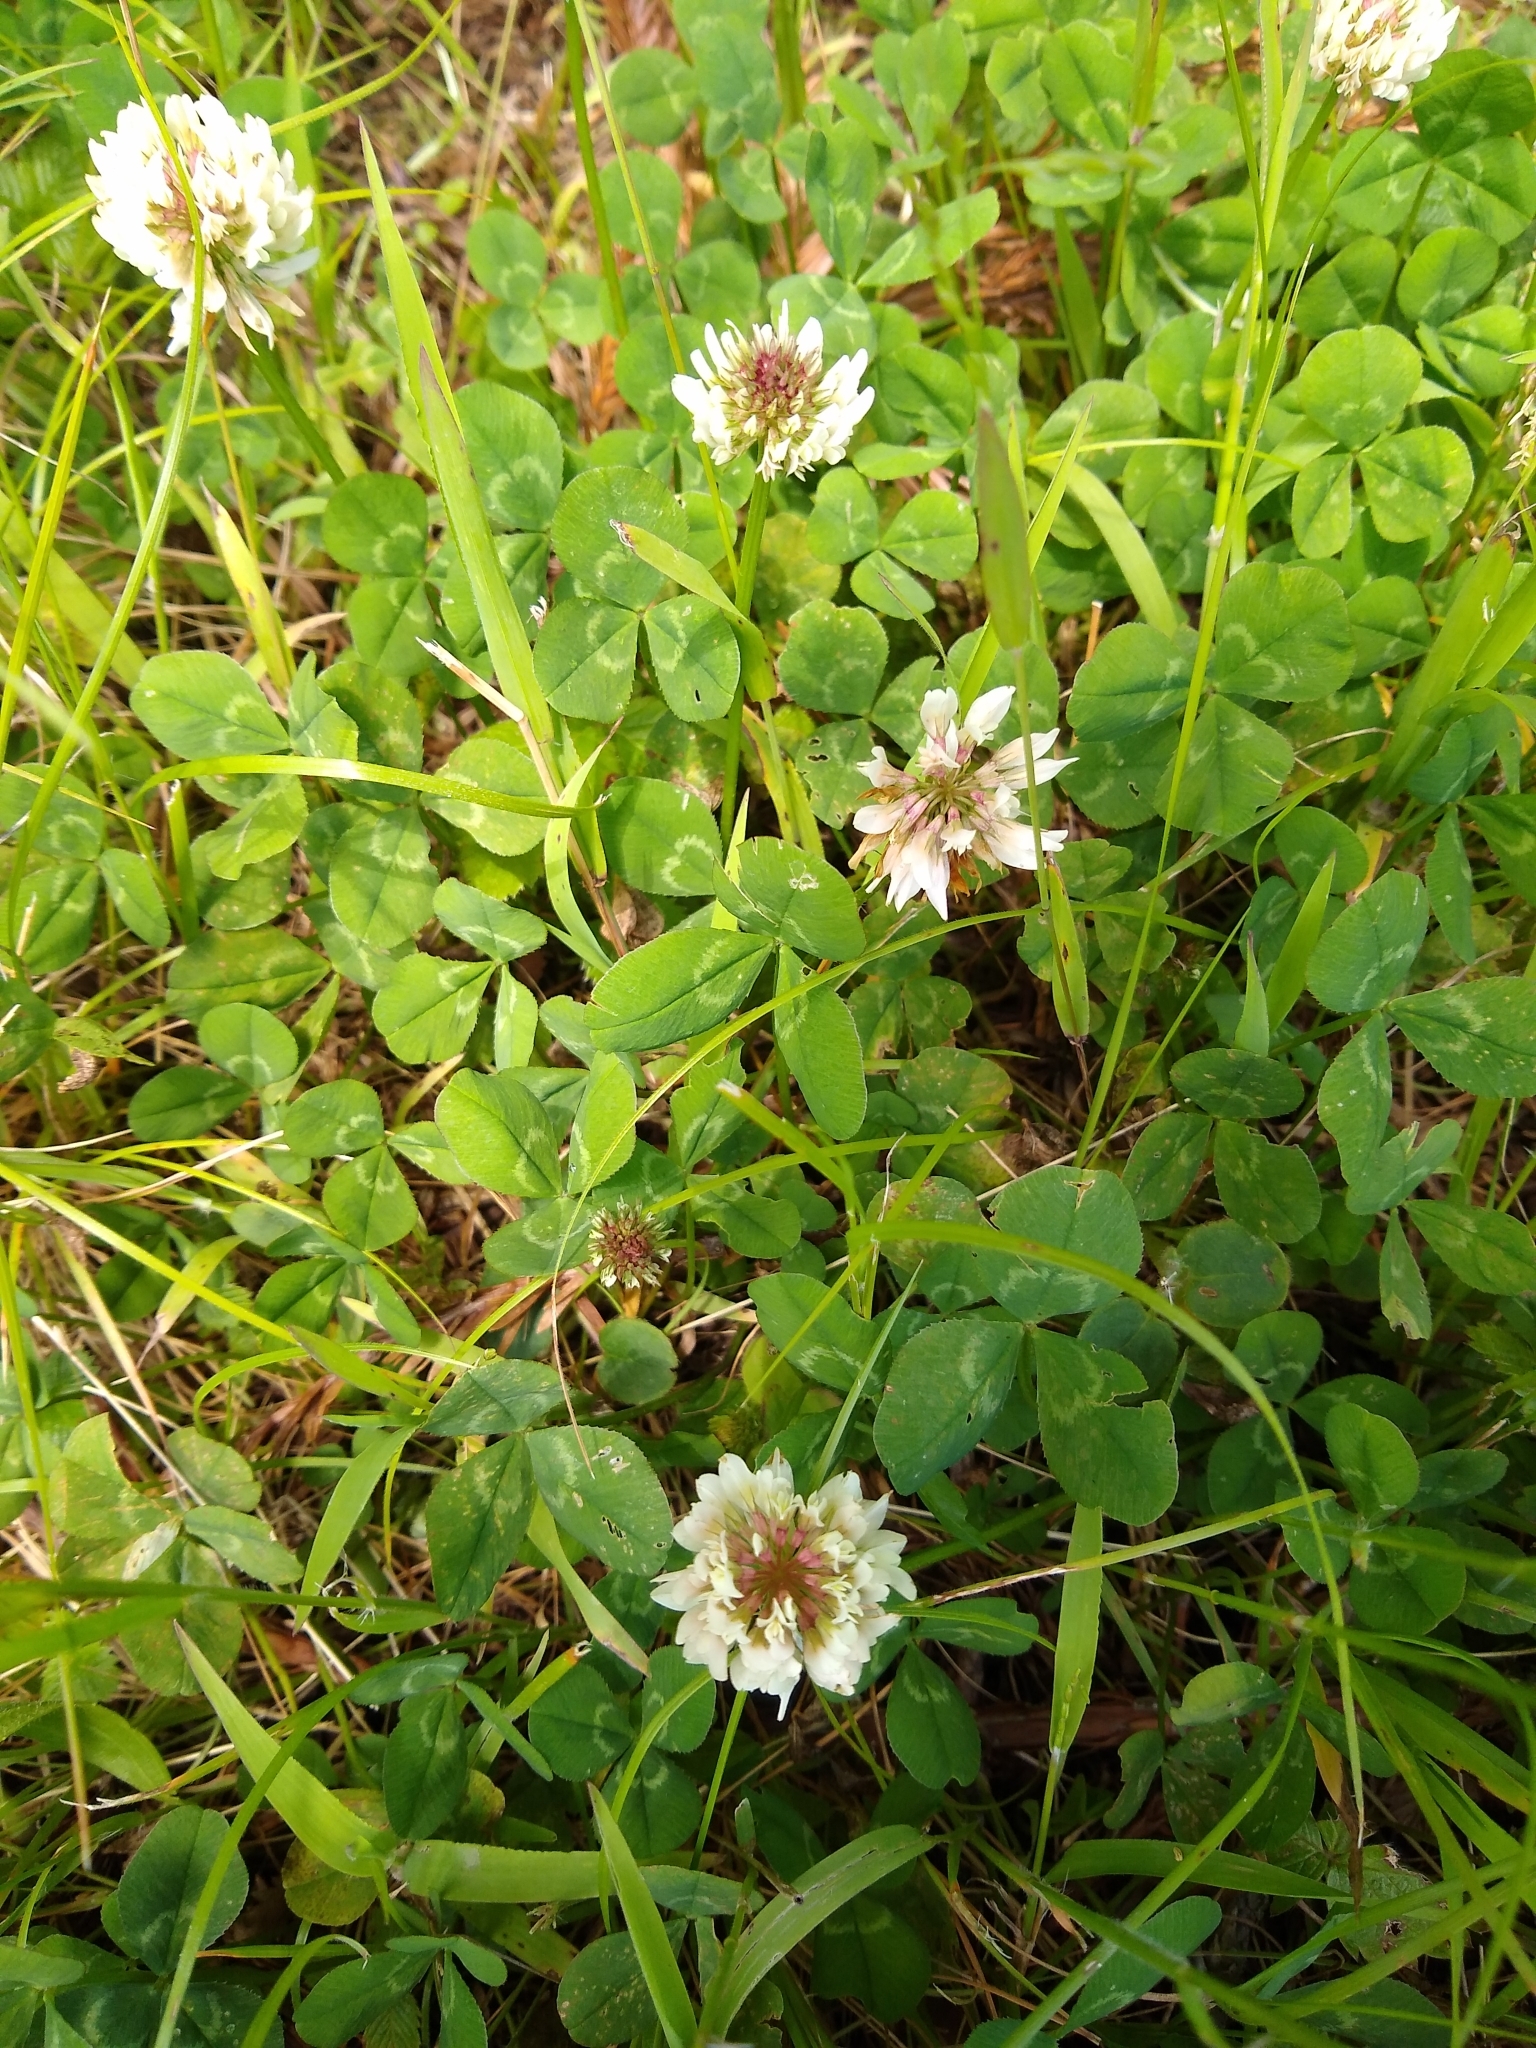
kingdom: Plantae
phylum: Tracheophyta
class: Magnoliopsida
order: Fabales
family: Fabaceae
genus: Trifolium
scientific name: Trifolium repens
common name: White clover
